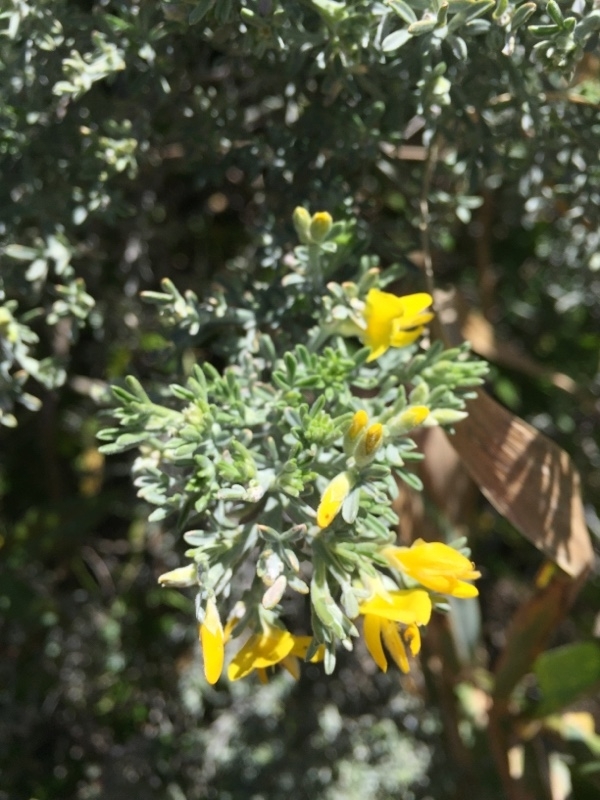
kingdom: Plantae
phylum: Tracheophyta
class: Magnoliopsida
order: Fabales
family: Fabaceae
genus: Genista
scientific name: Genista microphylla
